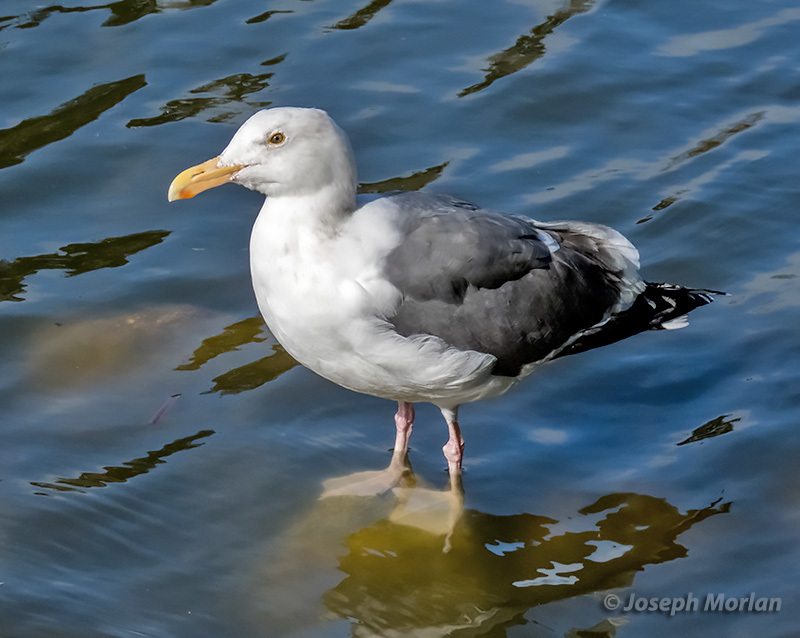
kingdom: Animalia
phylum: Chordata
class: Aves
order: Charadriiformes
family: Laridae
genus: Larus
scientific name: Larus occidentalis
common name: Western gull
